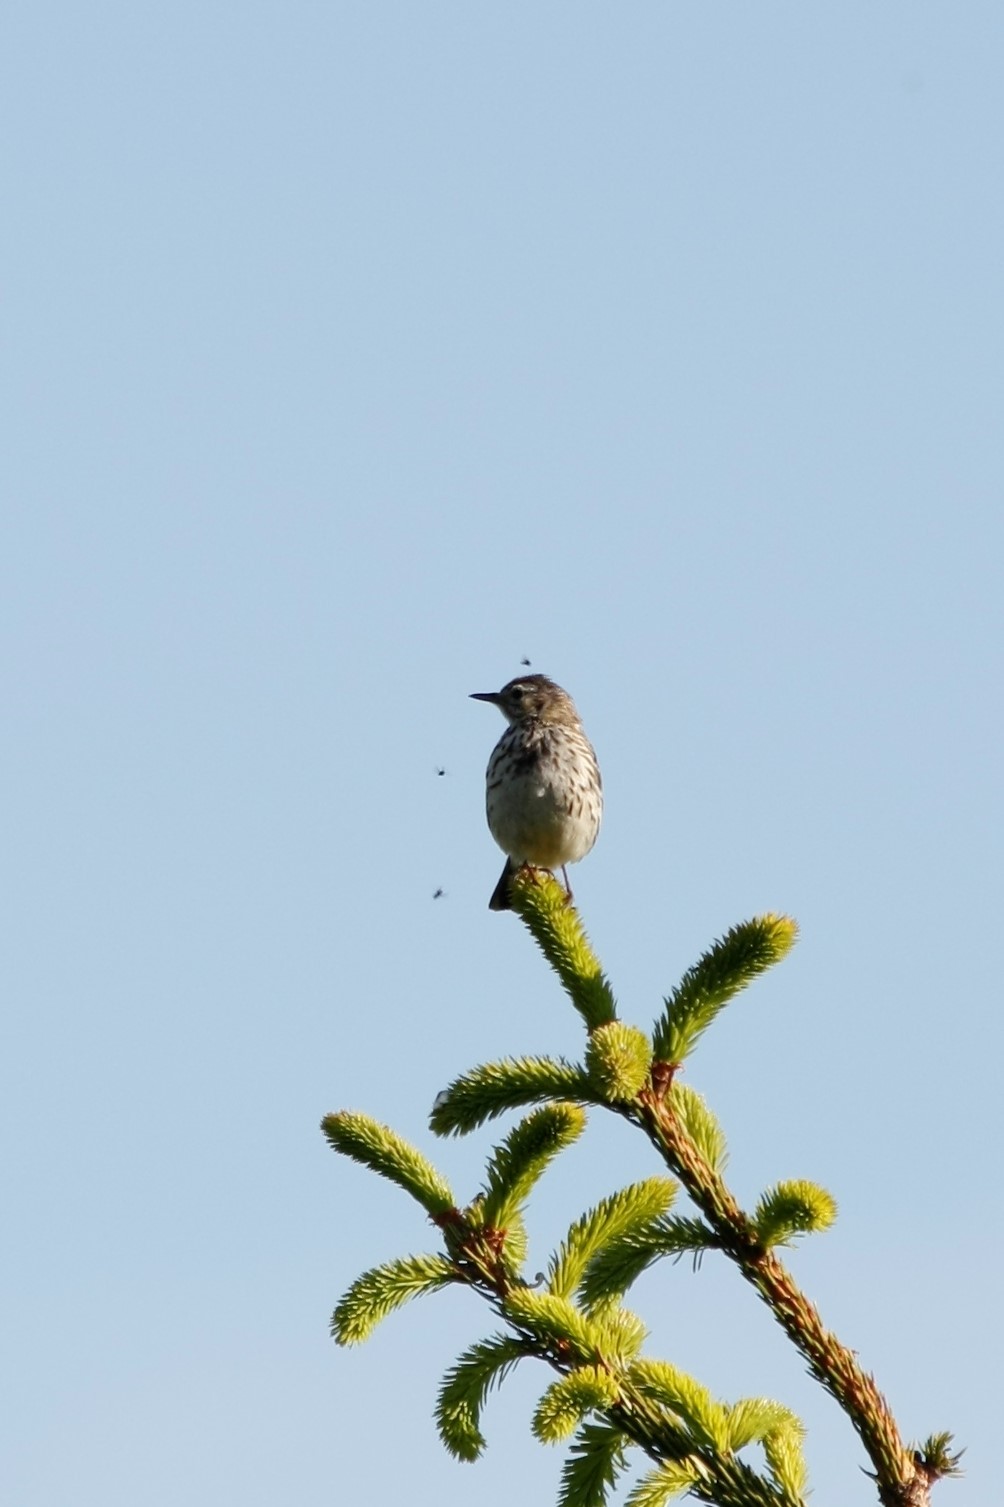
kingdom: Animalia
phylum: Chordata
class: Aves
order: Passeriformes
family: Motacillidae
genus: Anthus
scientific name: Anthus pratensis
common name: Meadow pipit
